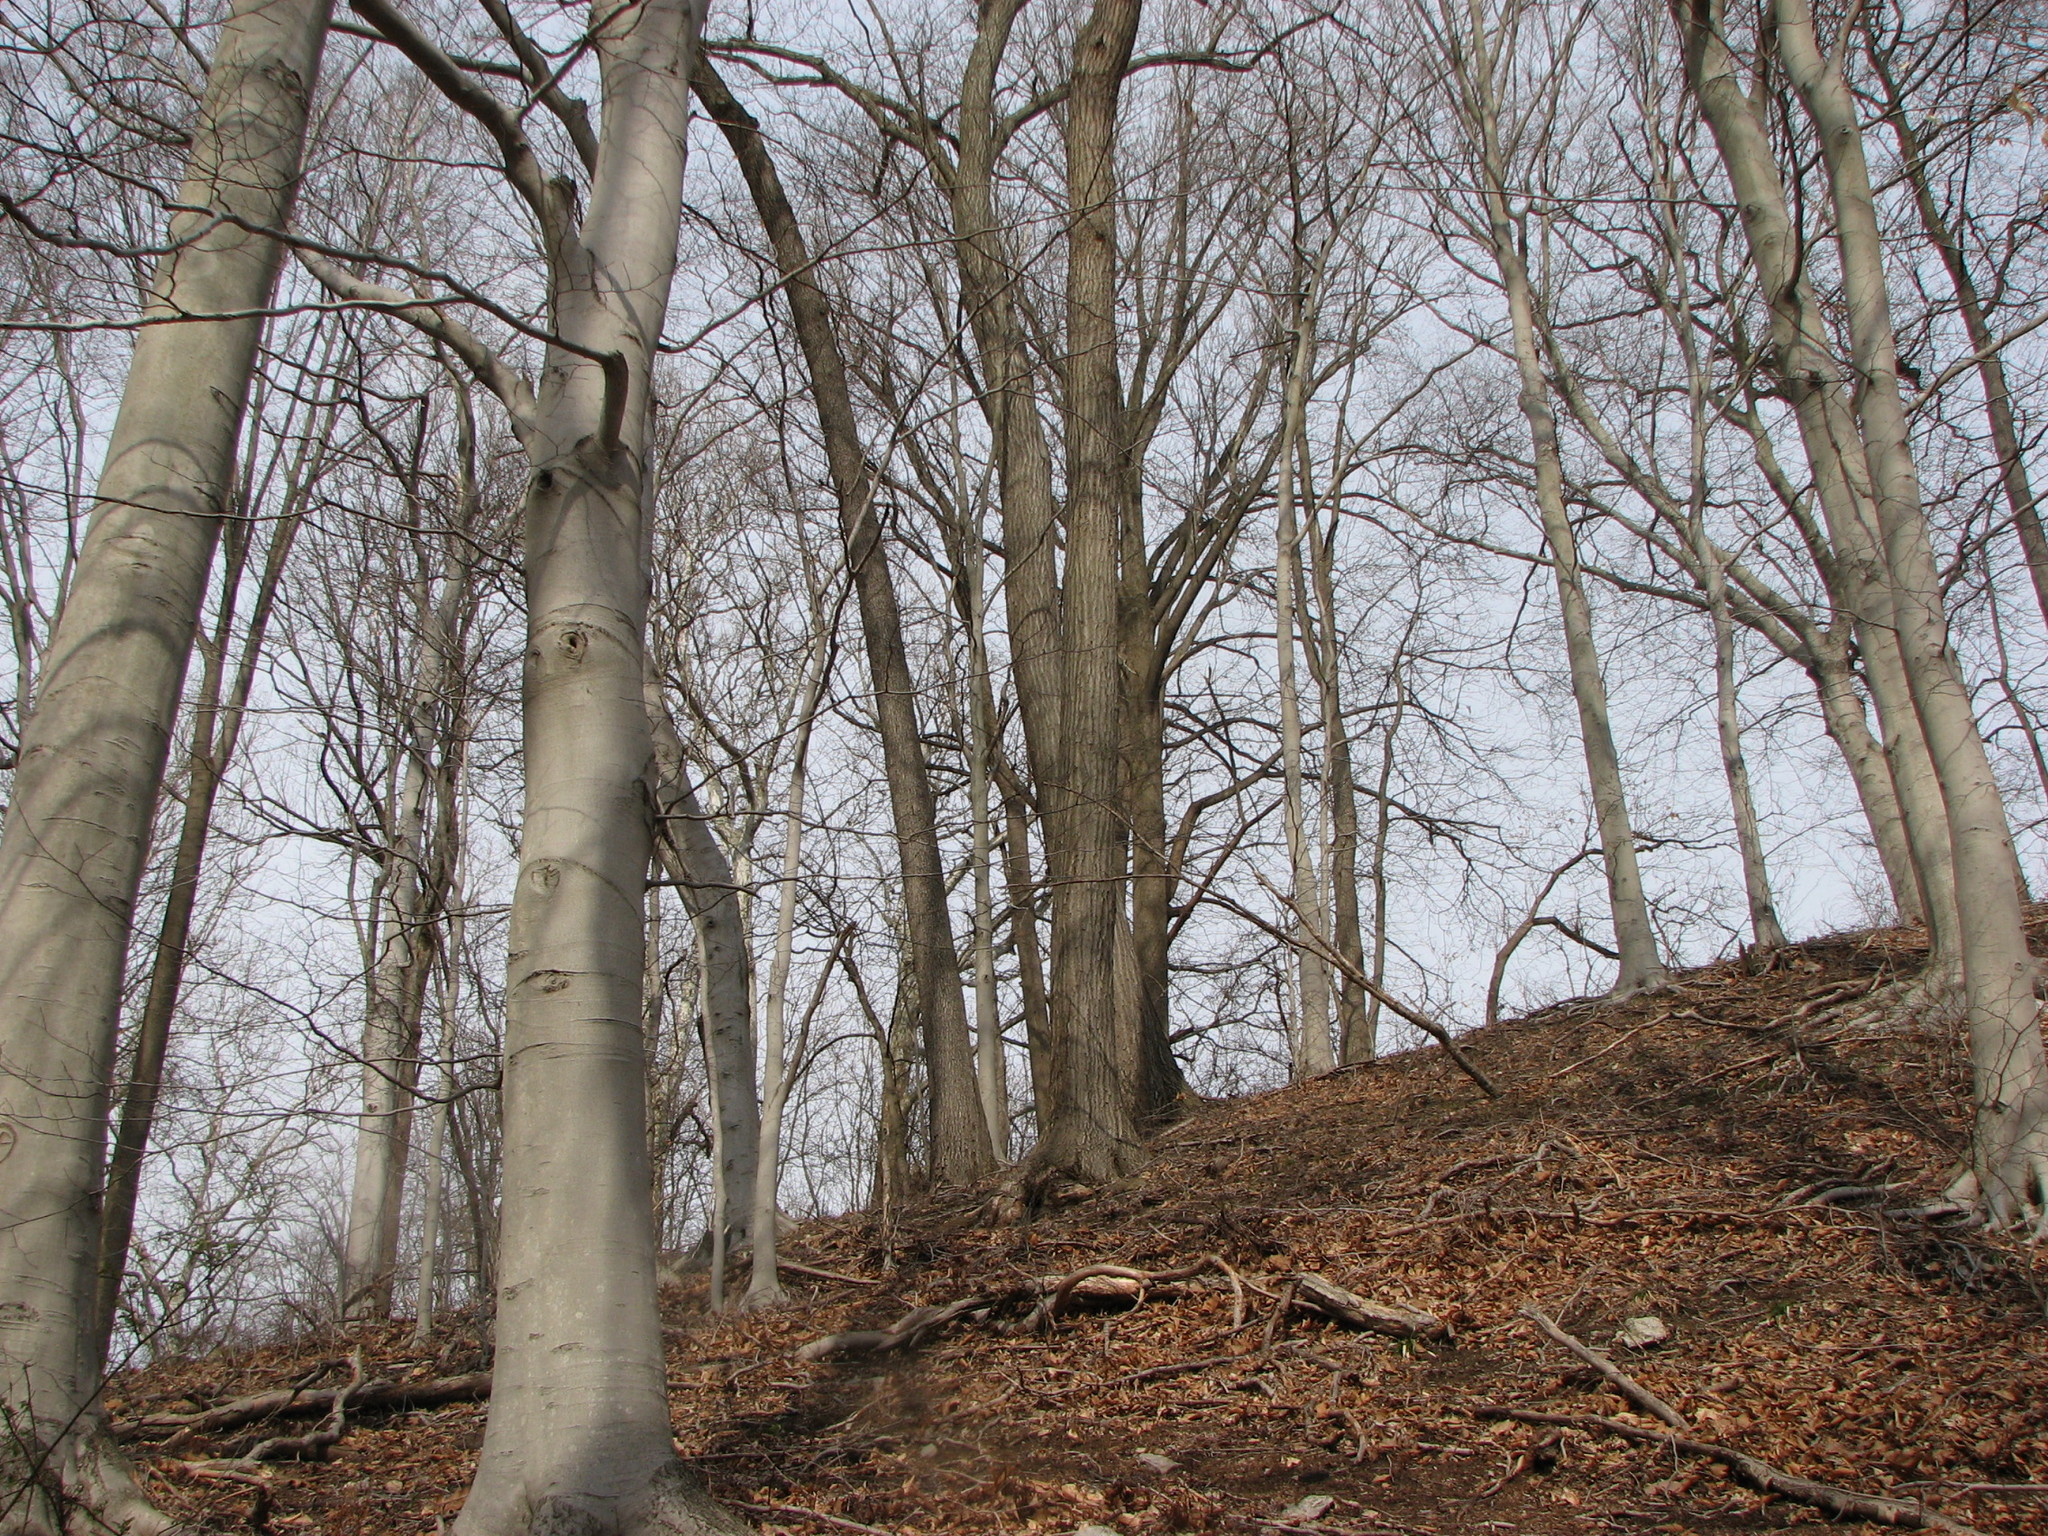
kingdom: Plantae
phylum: Tracheophyta
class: Magnoliopsida
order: Fagales
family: Fagaceae
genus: Fagus
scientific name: Fagus grandifolia
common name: American beech
